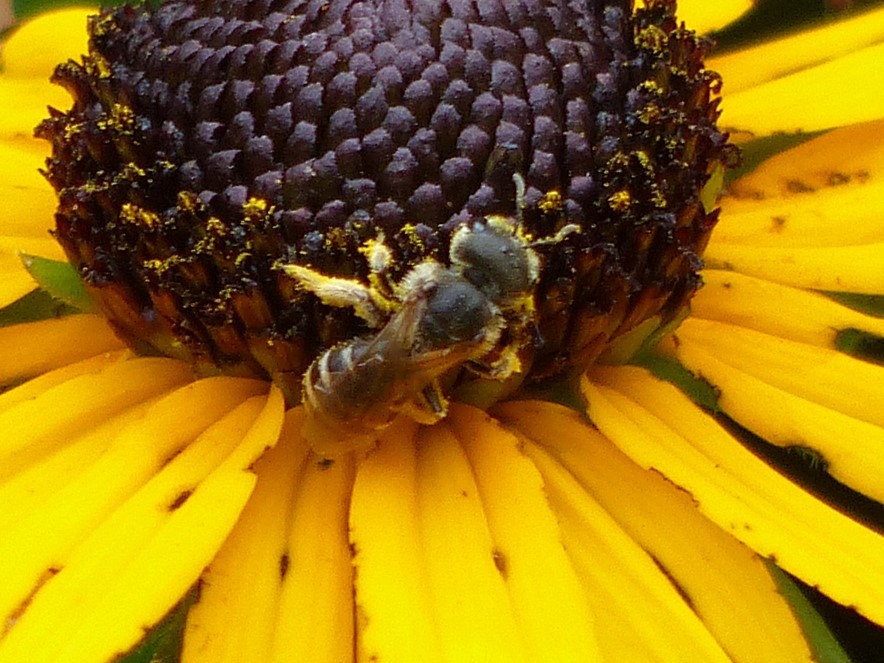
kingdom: Animalia
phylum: Arthropoda
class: Insecta
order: Hymenoptera
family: Halictidae
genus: Halictus
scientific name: Halictus ligatus
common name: Ligated furrow bee
